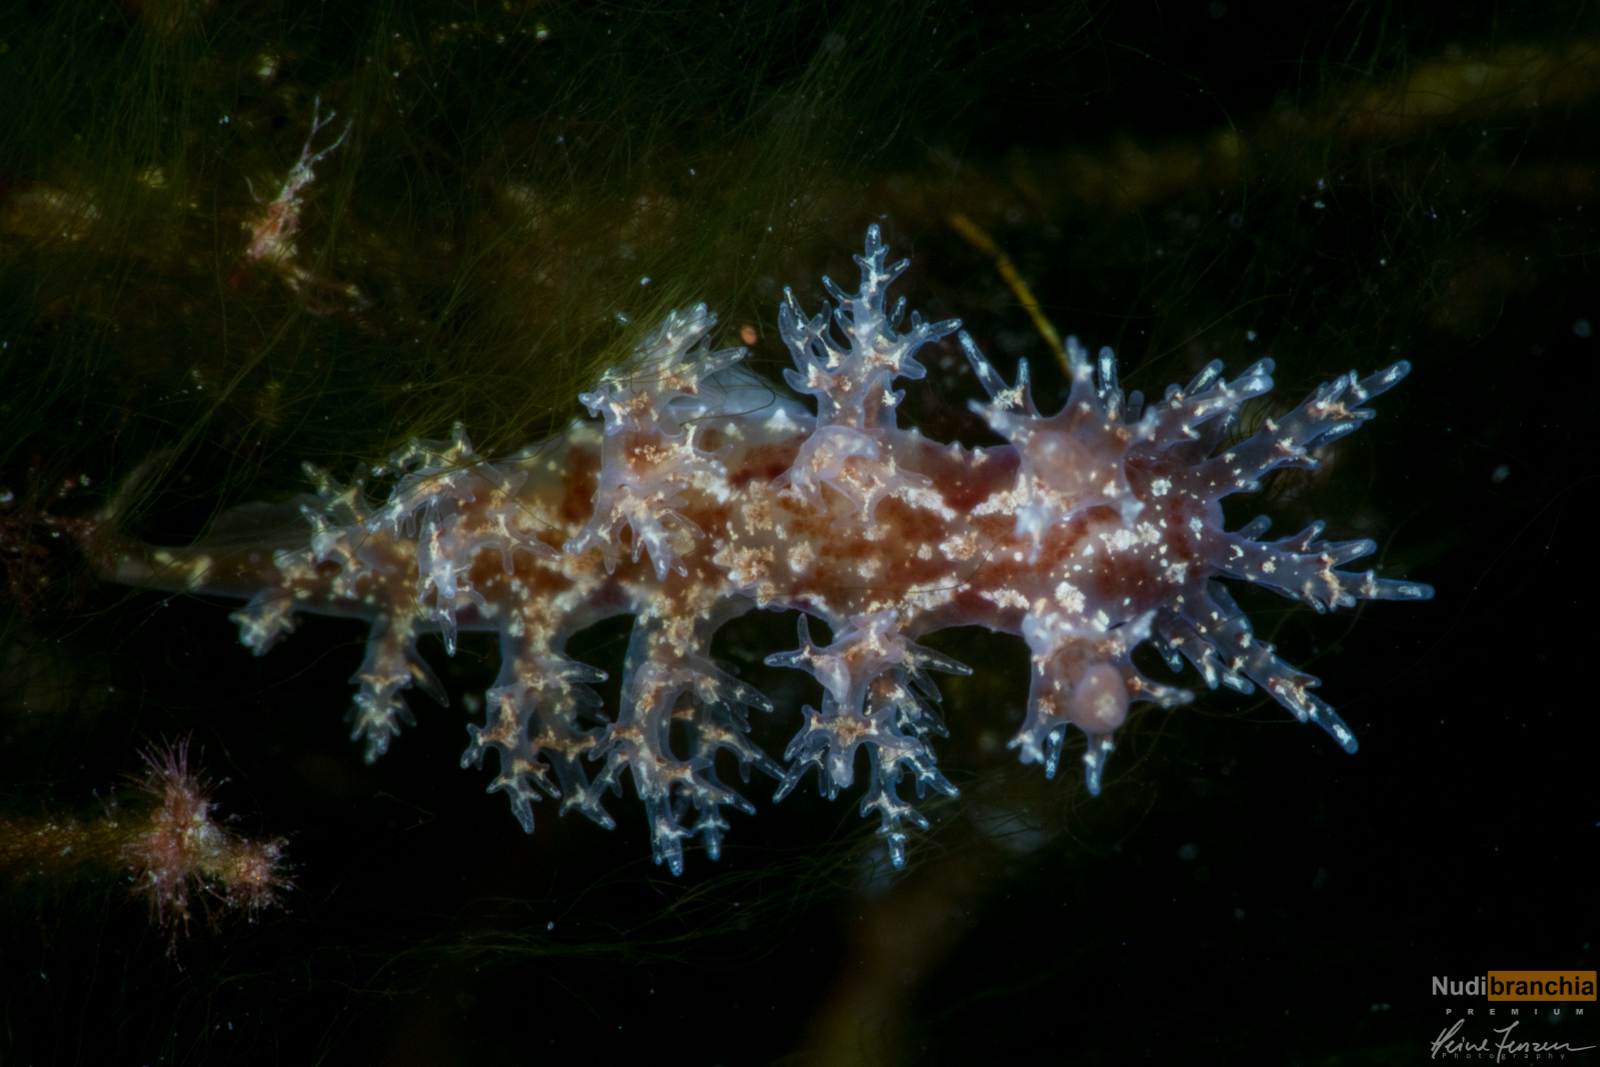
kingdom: Animalia
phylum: Mollusca
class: Gastropoda
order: Nudibranchia
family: Dendronotidae
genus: Dendronotus
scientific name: Dendronotus frondosus
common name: Bushy-backed nudibranch
